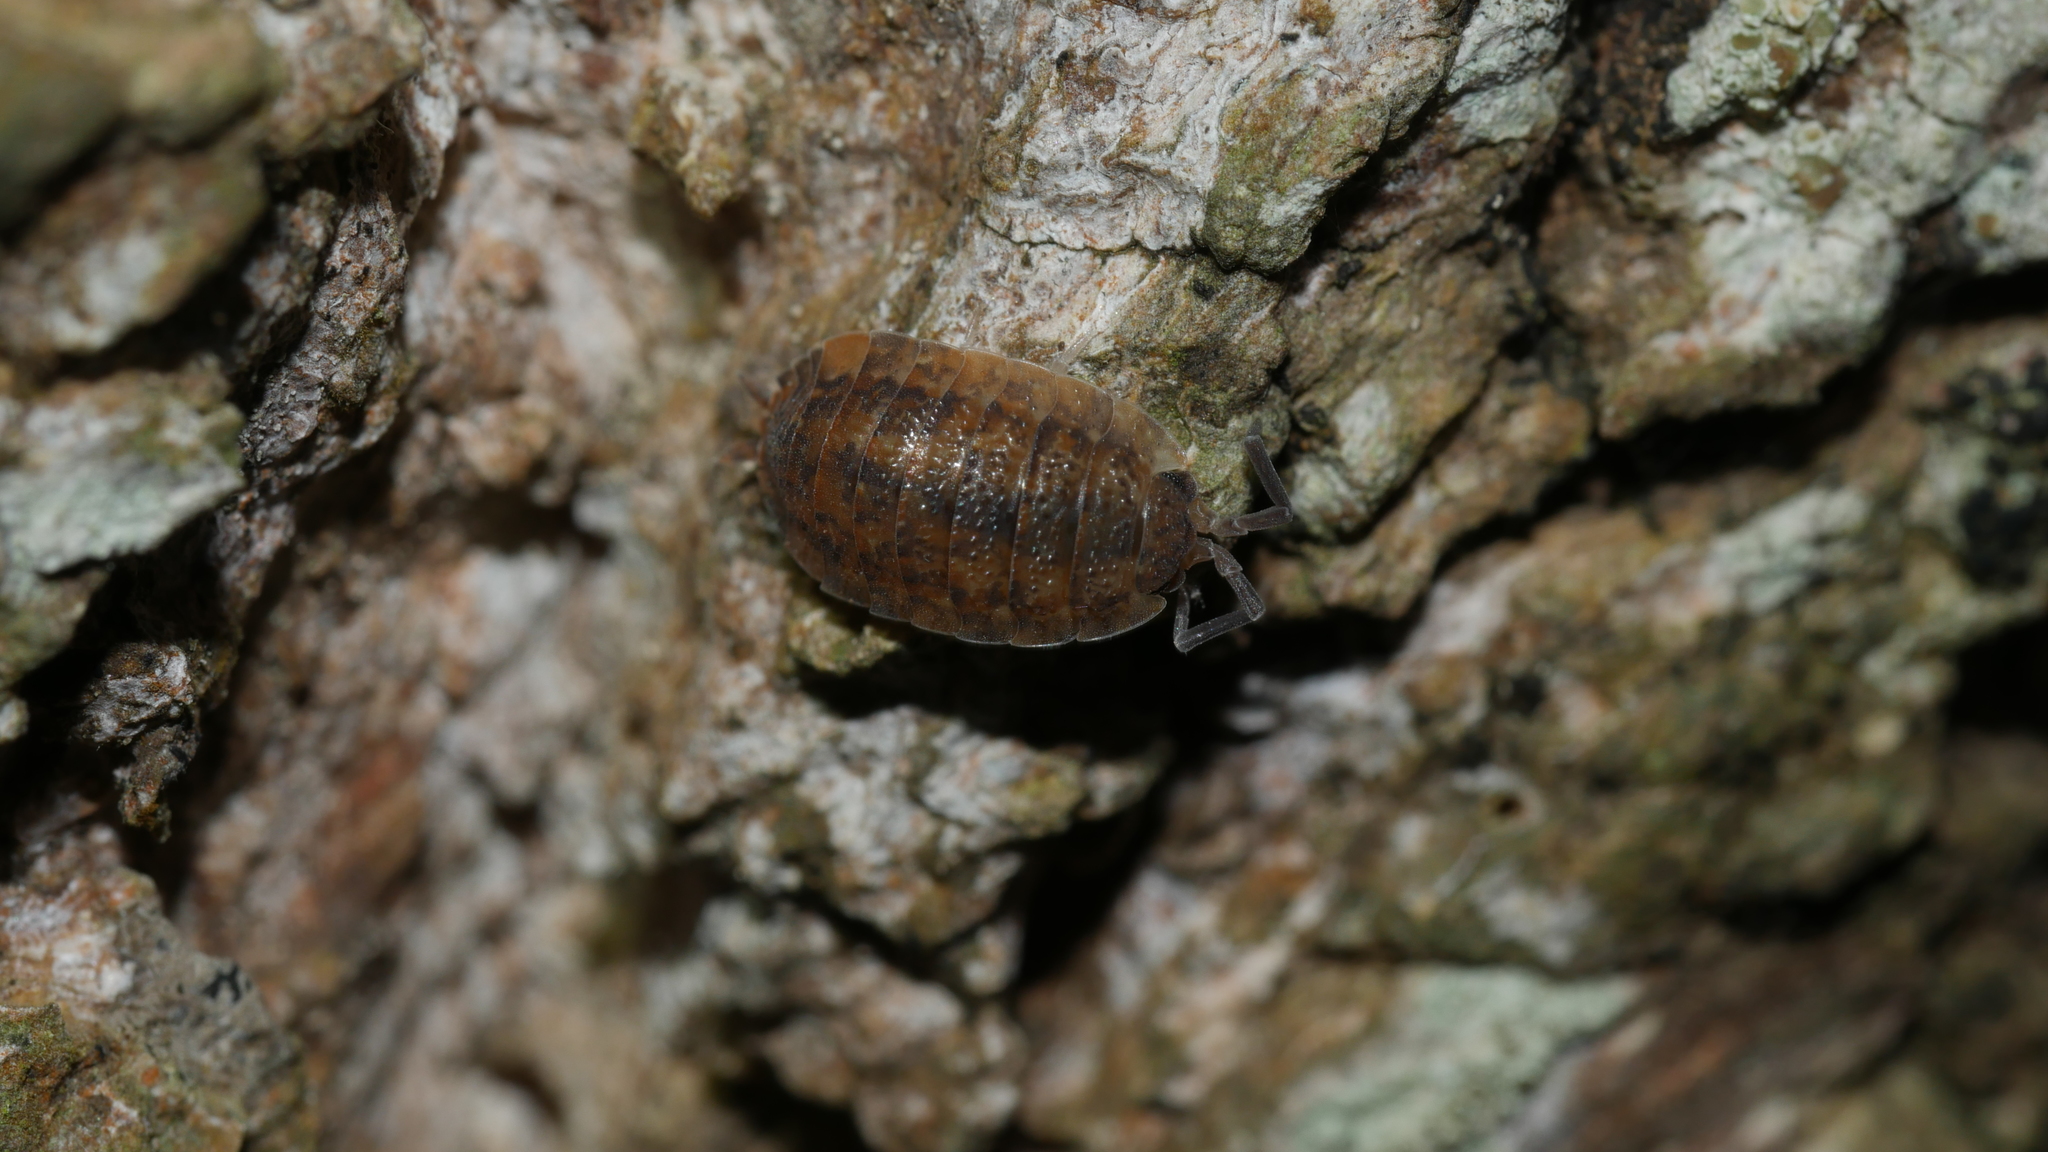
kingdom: Animalia
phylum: Arthropoda
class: Malacostraca
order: Isopoda
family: Porcellionidae
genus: Porcellio
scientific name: Porcellio scaber
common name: Common rough woodlouse
